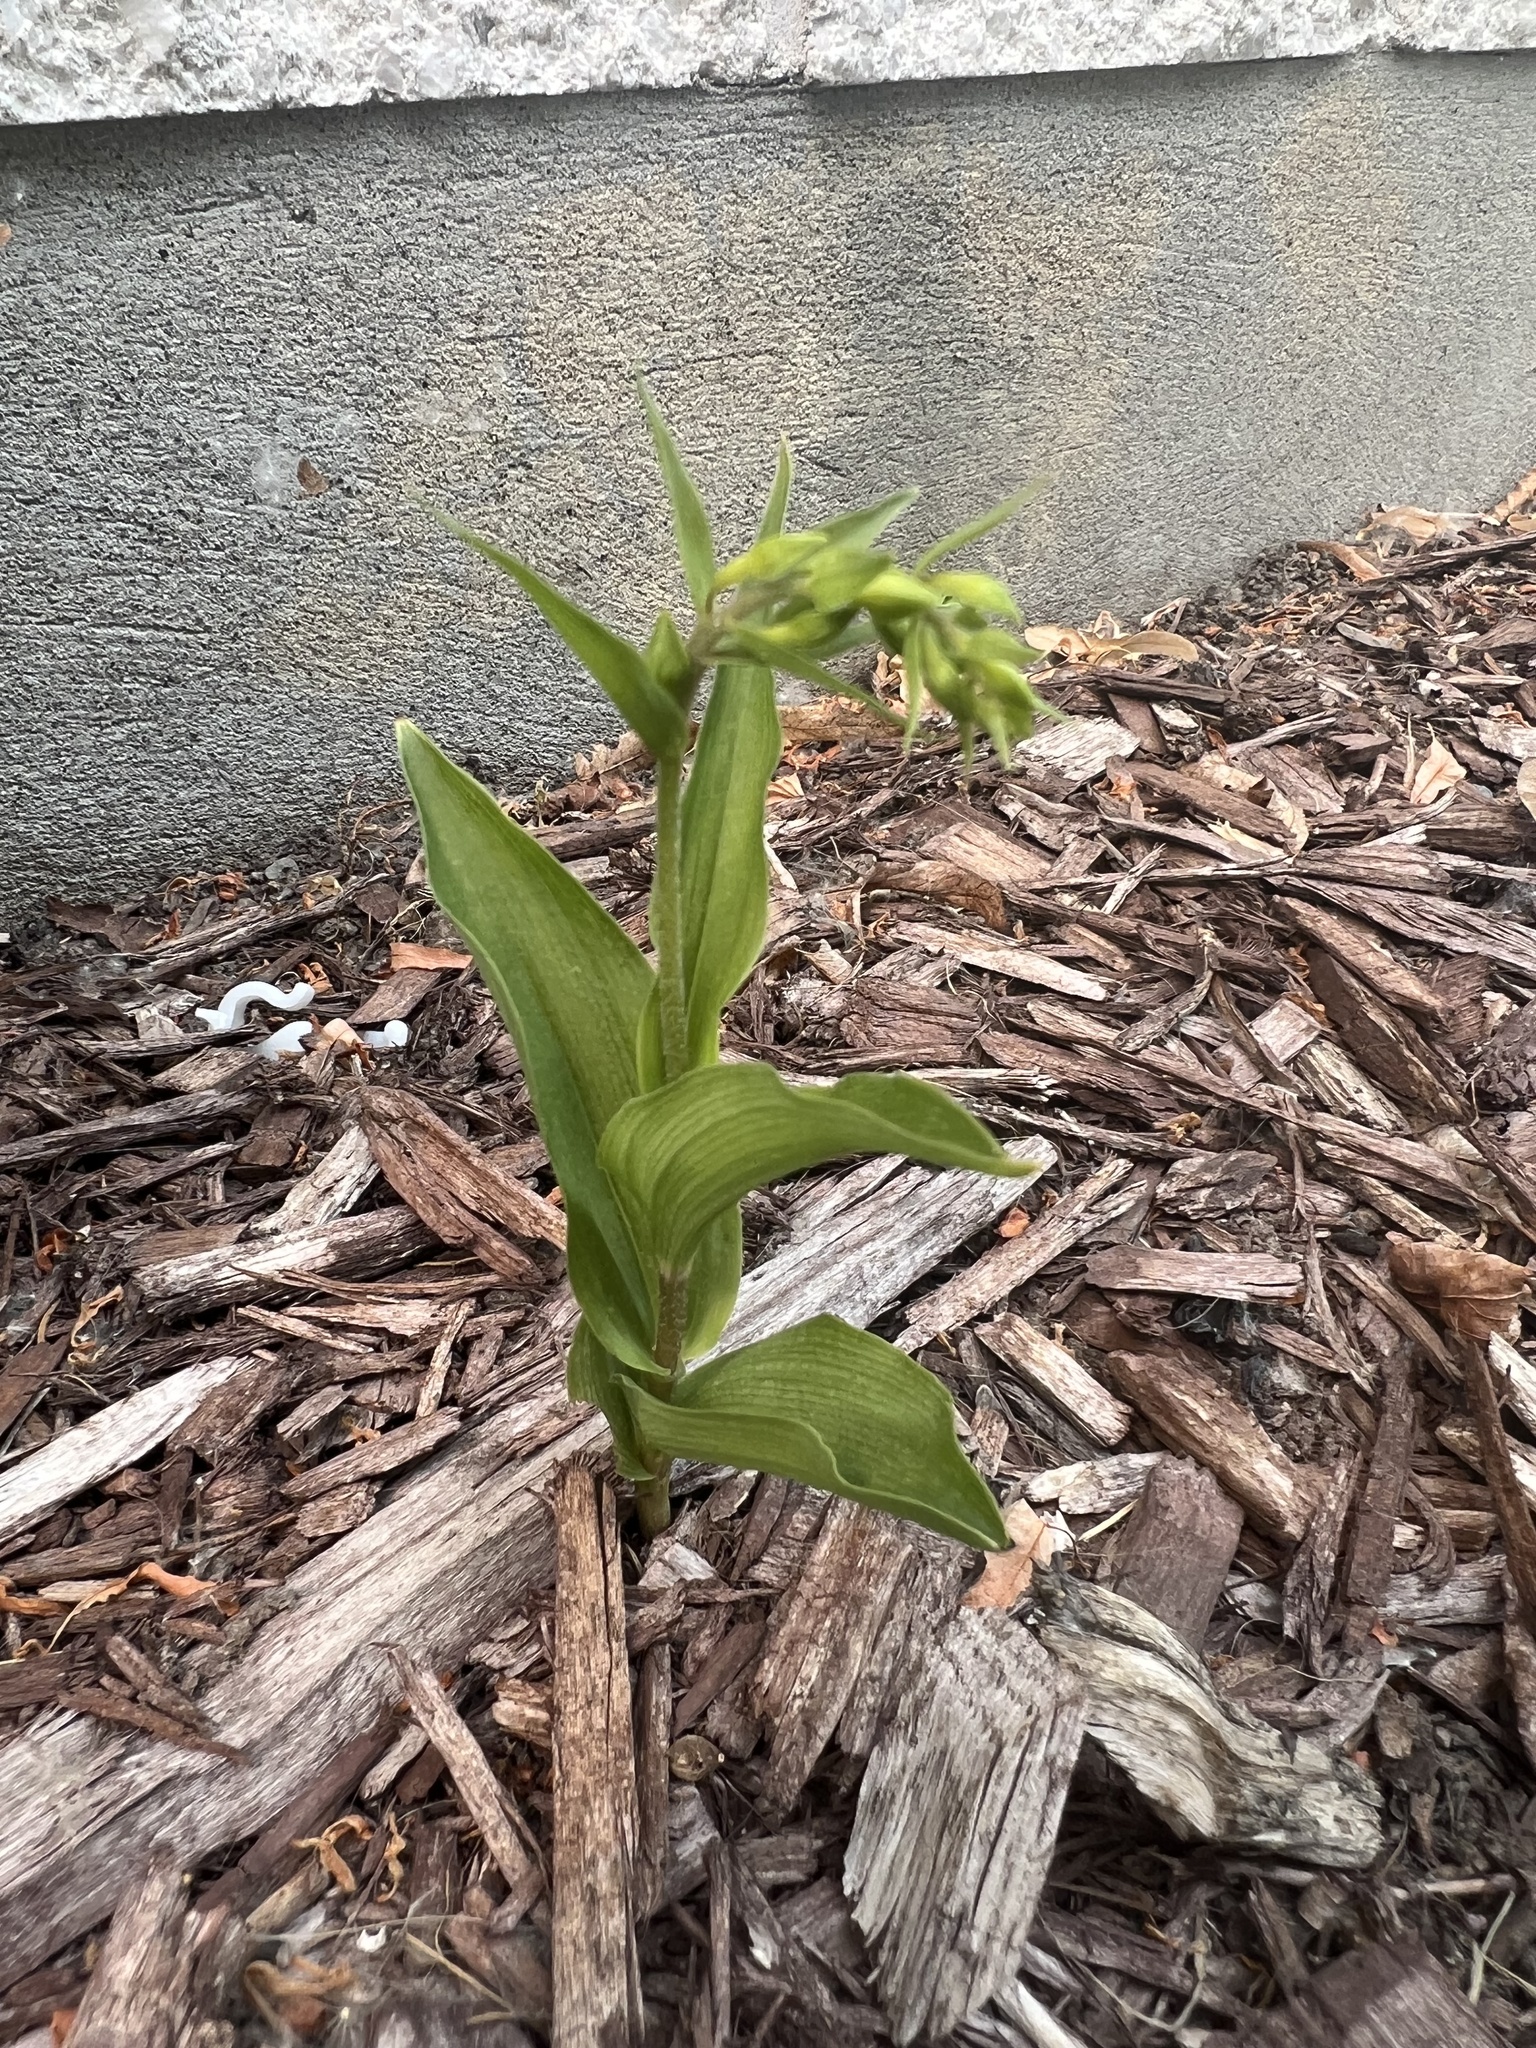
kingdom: Plantae
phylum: Tracheophyta
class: Liliopsida
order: Asparagales
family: Orchidaceae
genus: Epipactis
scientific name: Epipactis helleborine
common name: Broad-leaved helleborine
